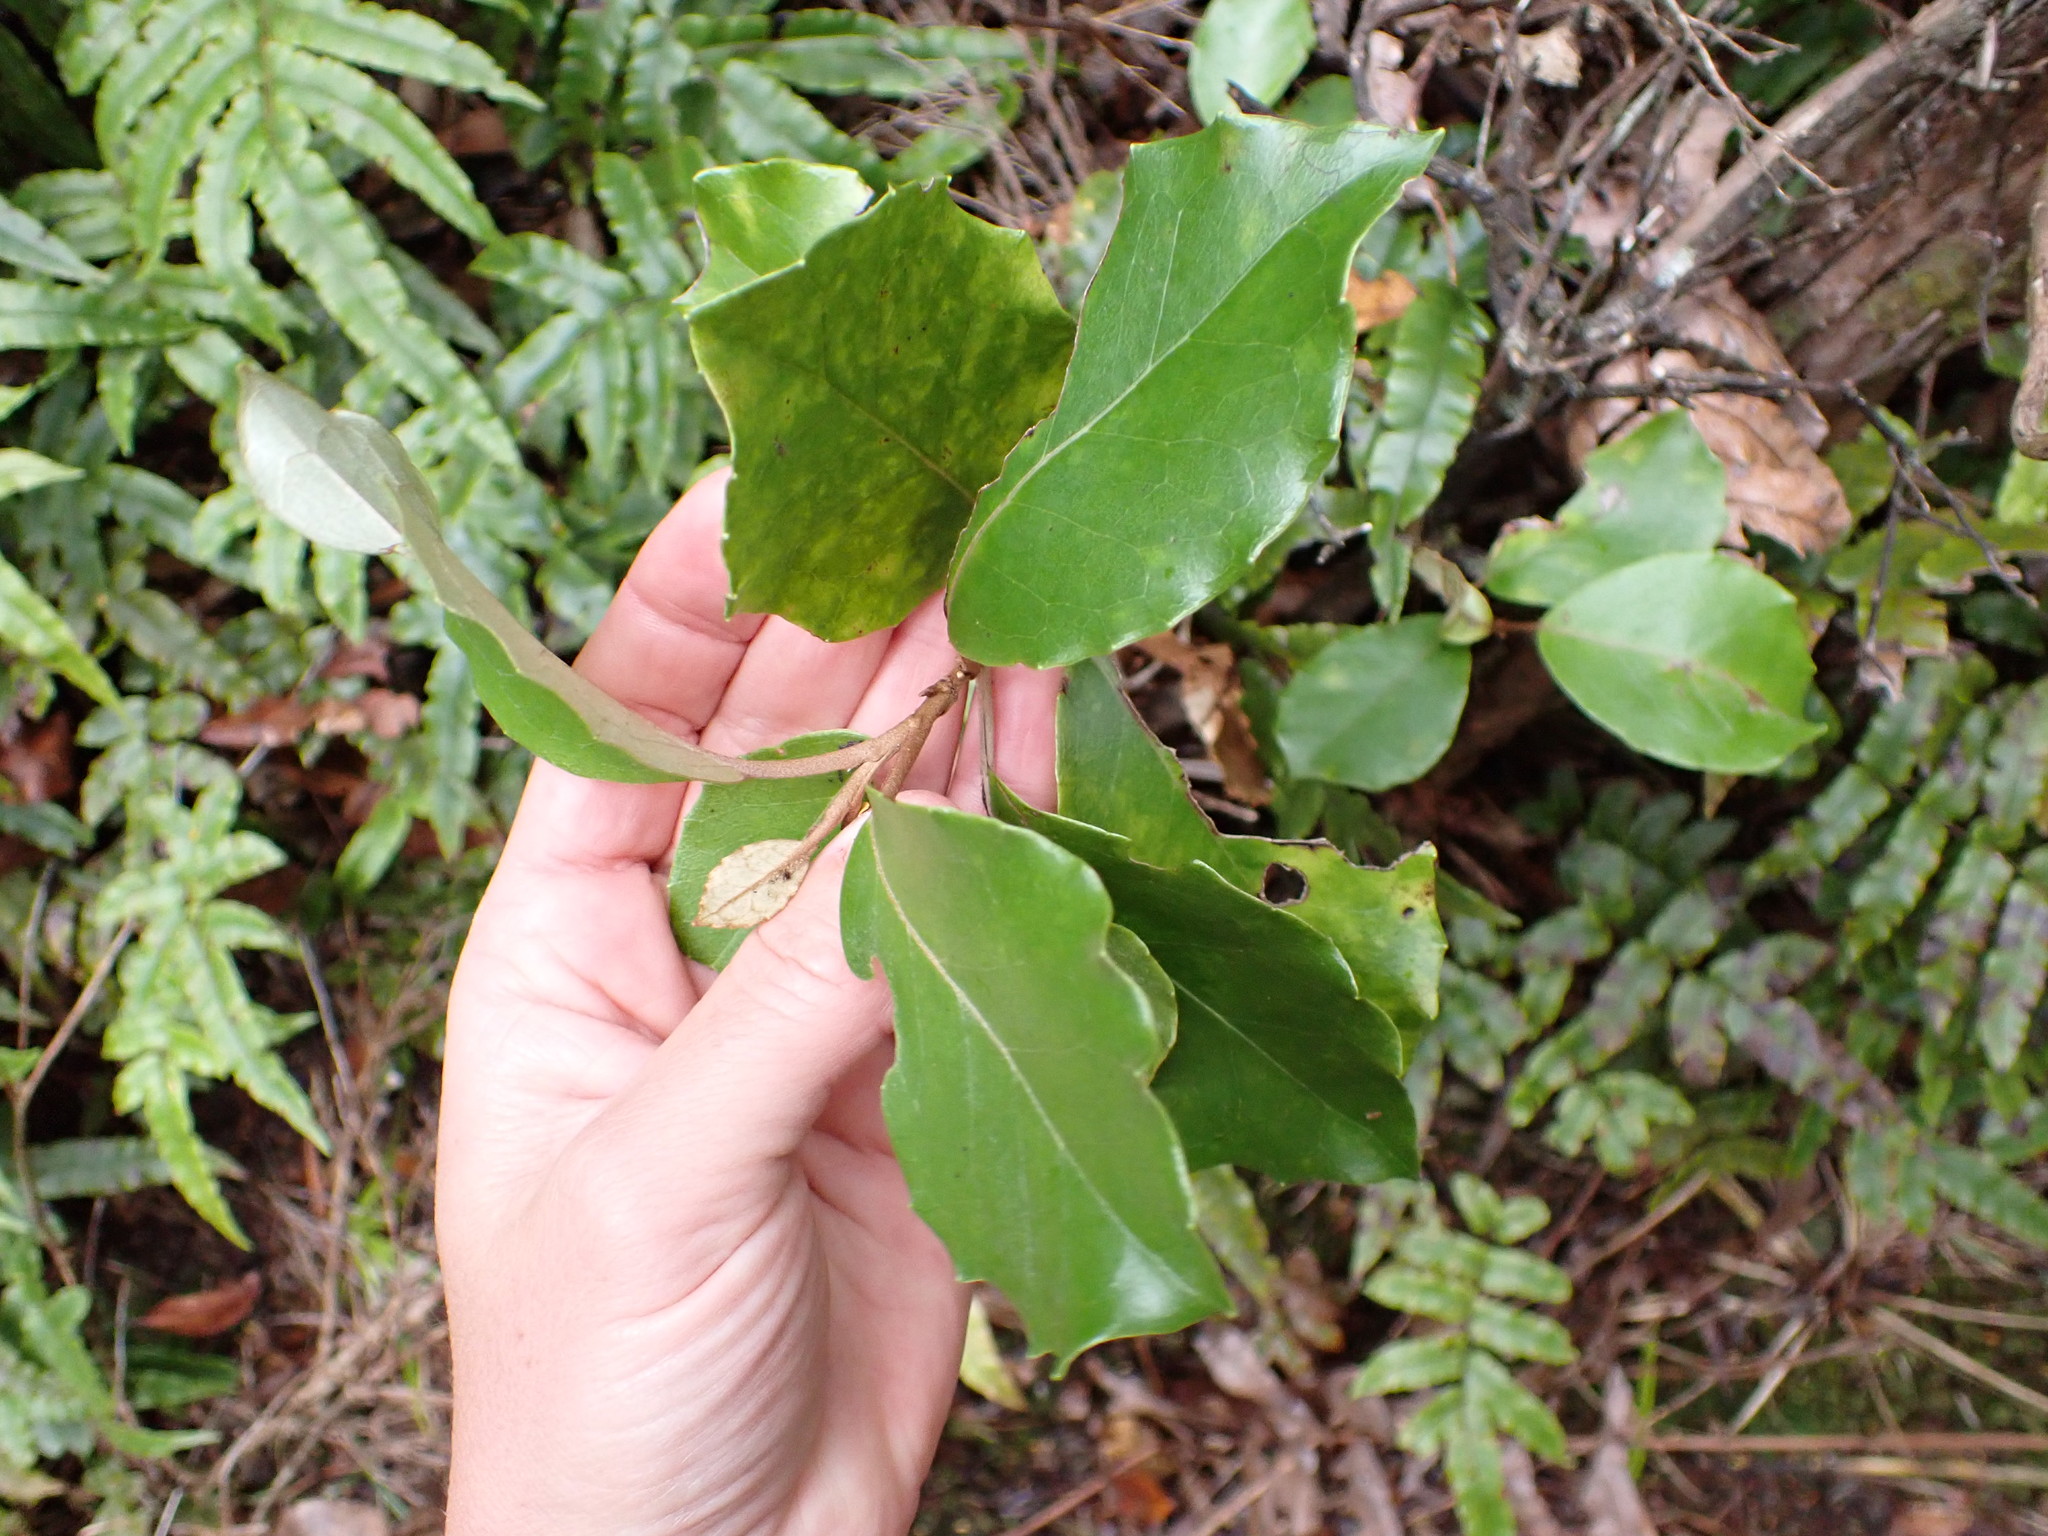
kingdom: Plantae
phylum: Tracheophyta
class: Magnoliopsida
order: Asterales
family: Asteraceae
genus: Olearia
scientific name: Olearia arborescens
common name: Glossy tree daisy
